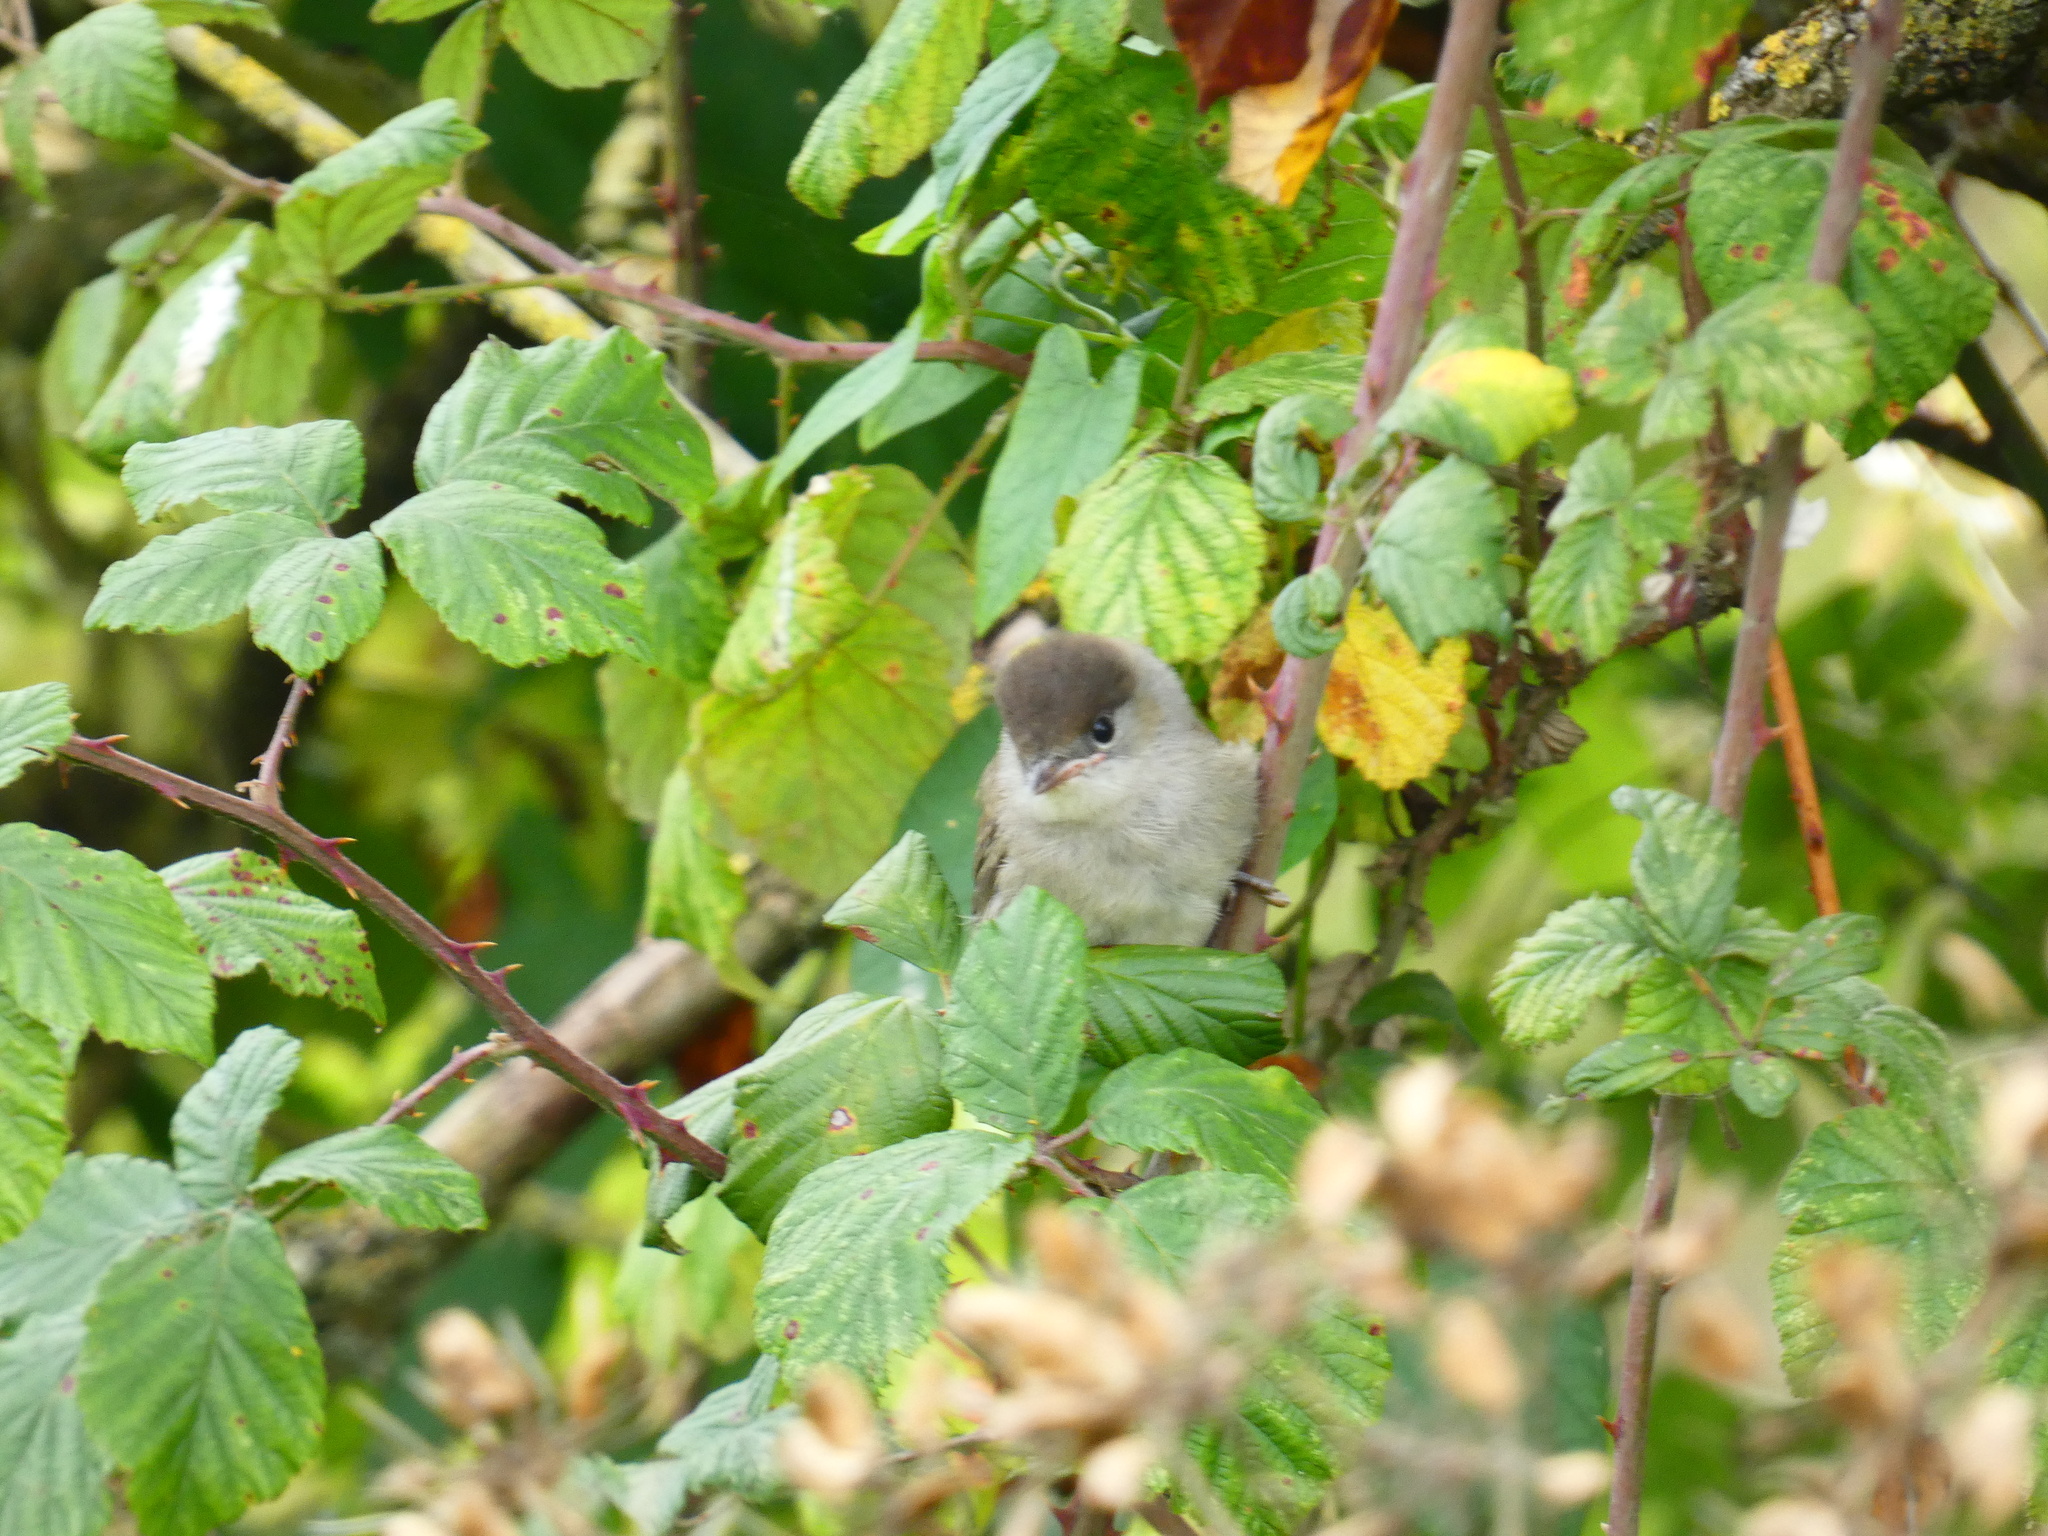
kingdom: Animalia
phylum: Chordata
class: Aves
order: Passeriformes
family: Sylviidae
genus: Sylvia
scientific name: Sylvia atricapilla
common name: Eurasian blackcap
